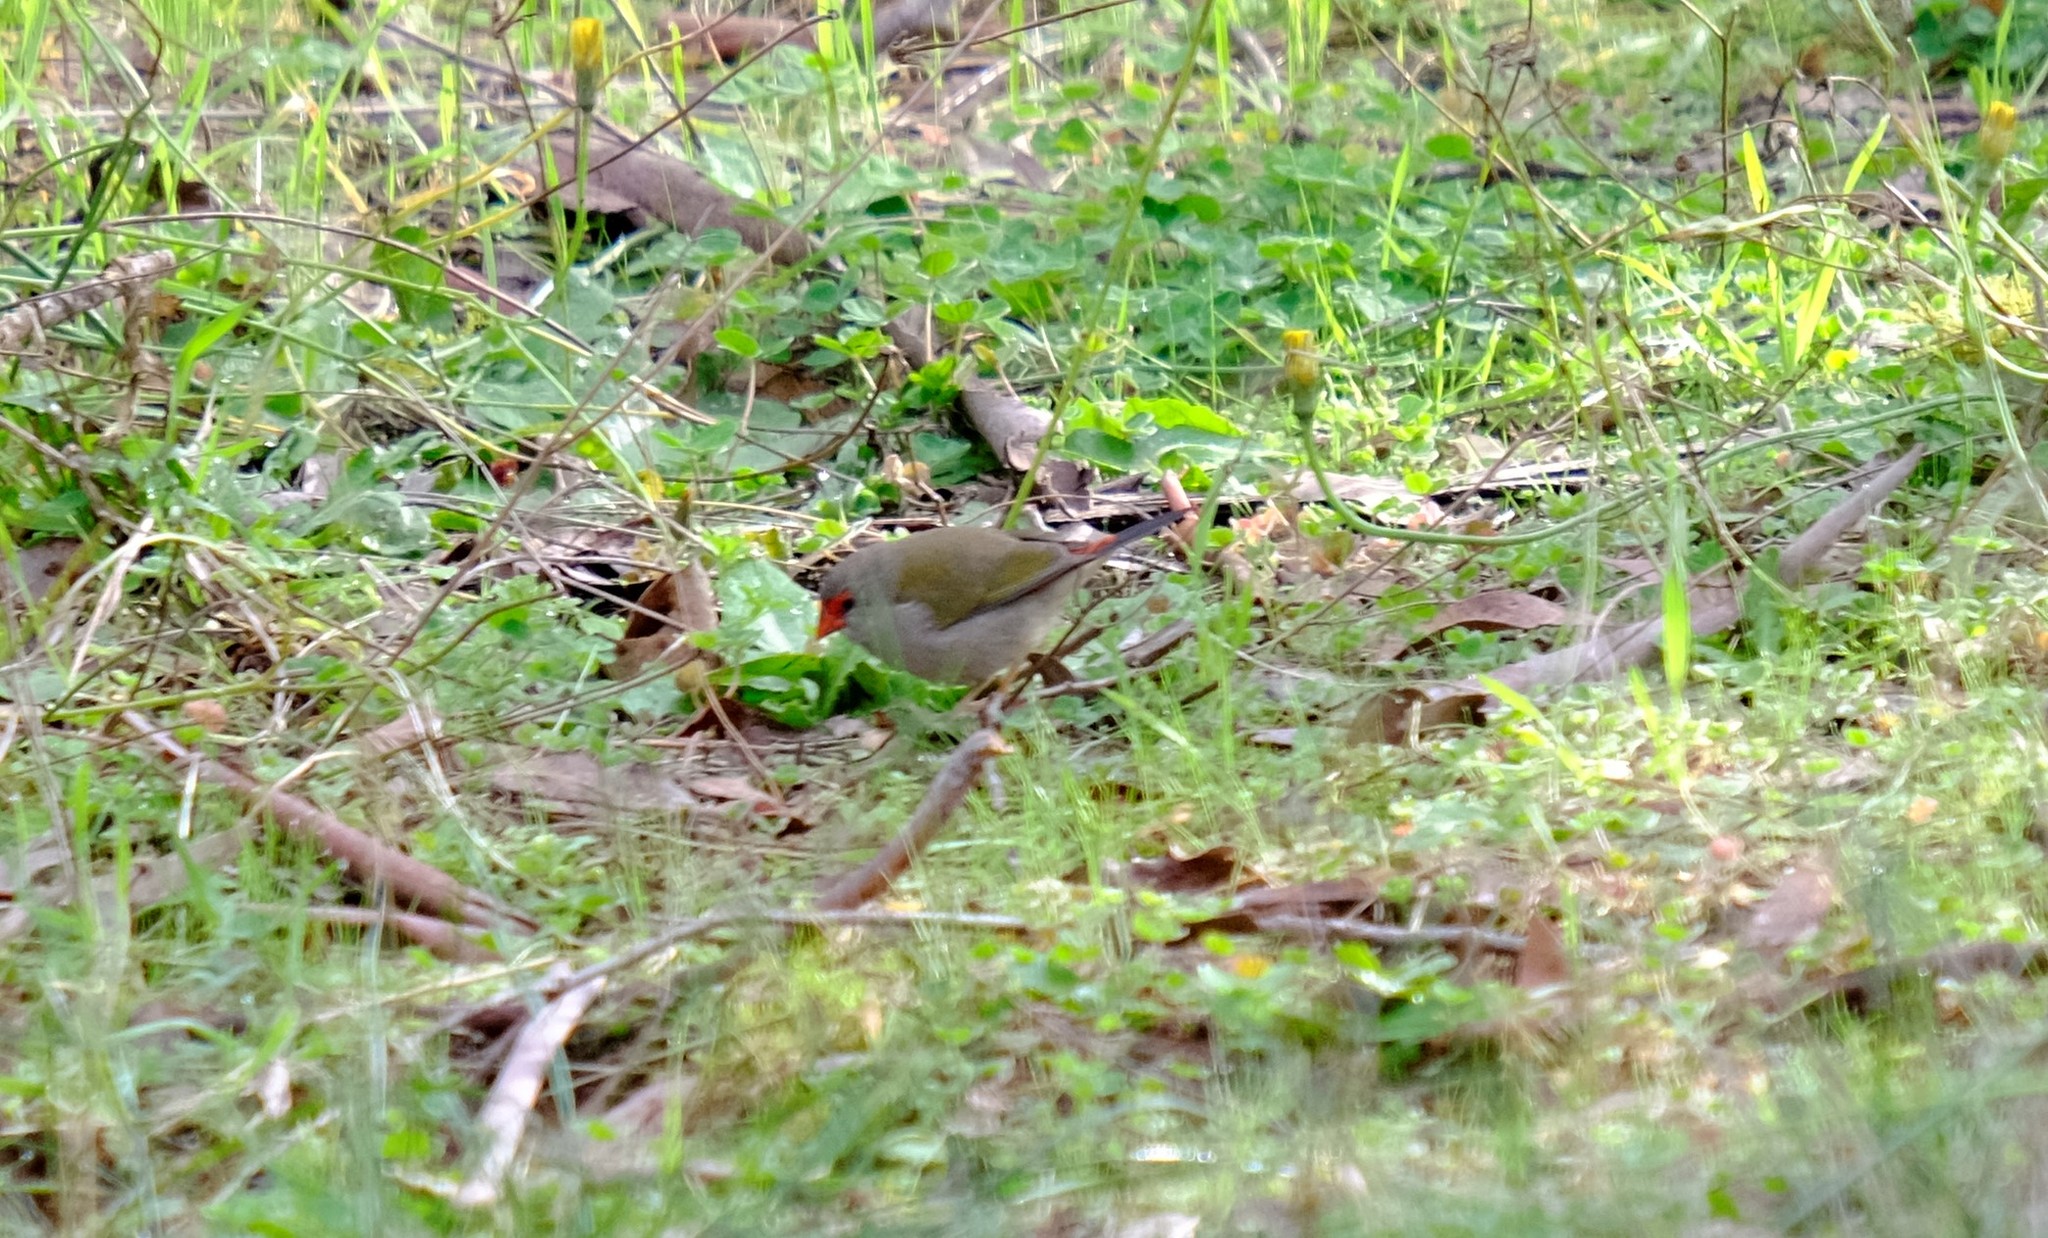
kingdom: Animalia
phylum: Chordata
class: Aves
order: Passeriformes
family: Estrildidae
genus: Neochmia
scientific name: Neochmia temporalis
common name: Red-browed finch
